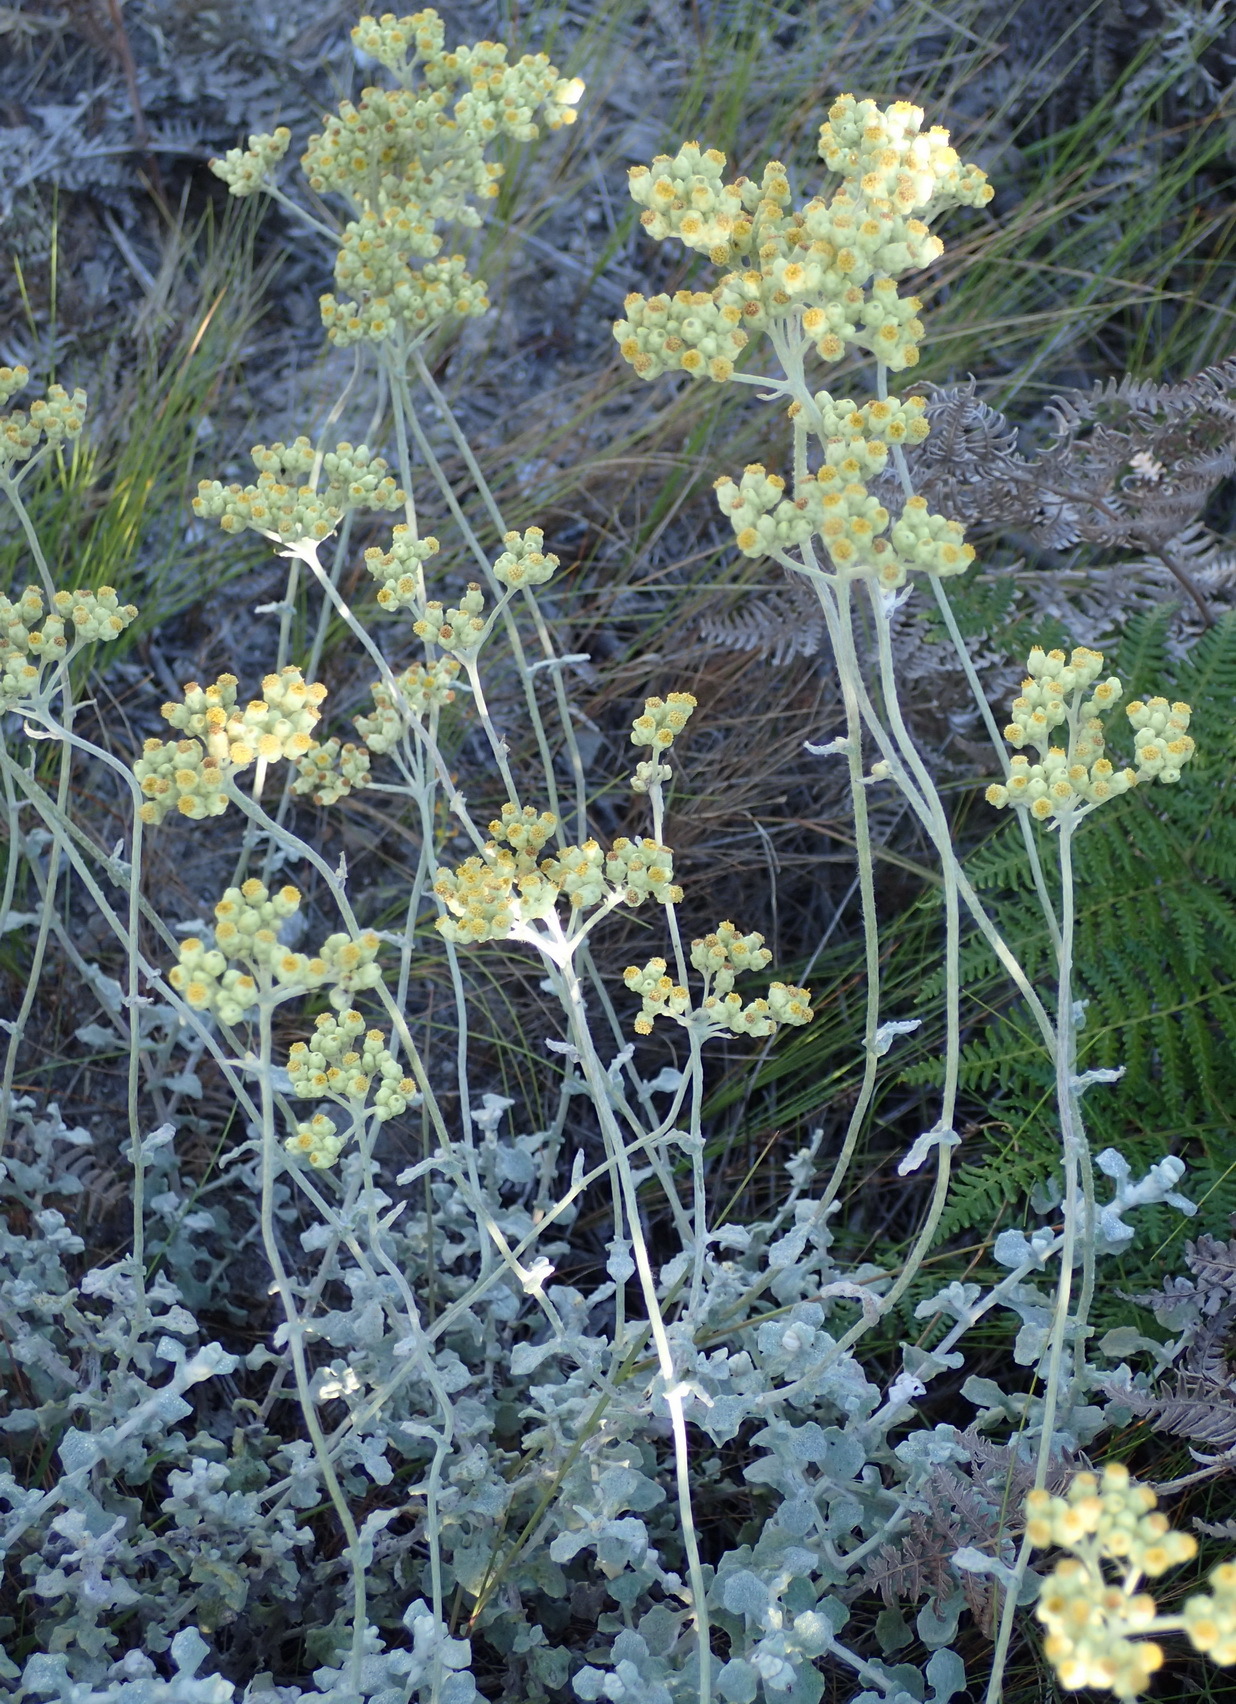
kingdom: Plantae
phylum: Tracheophyta
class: Magnoliopsida
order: Asterales
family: Asteraceae
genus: Helichrysum
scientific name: Helichrysum patulum
